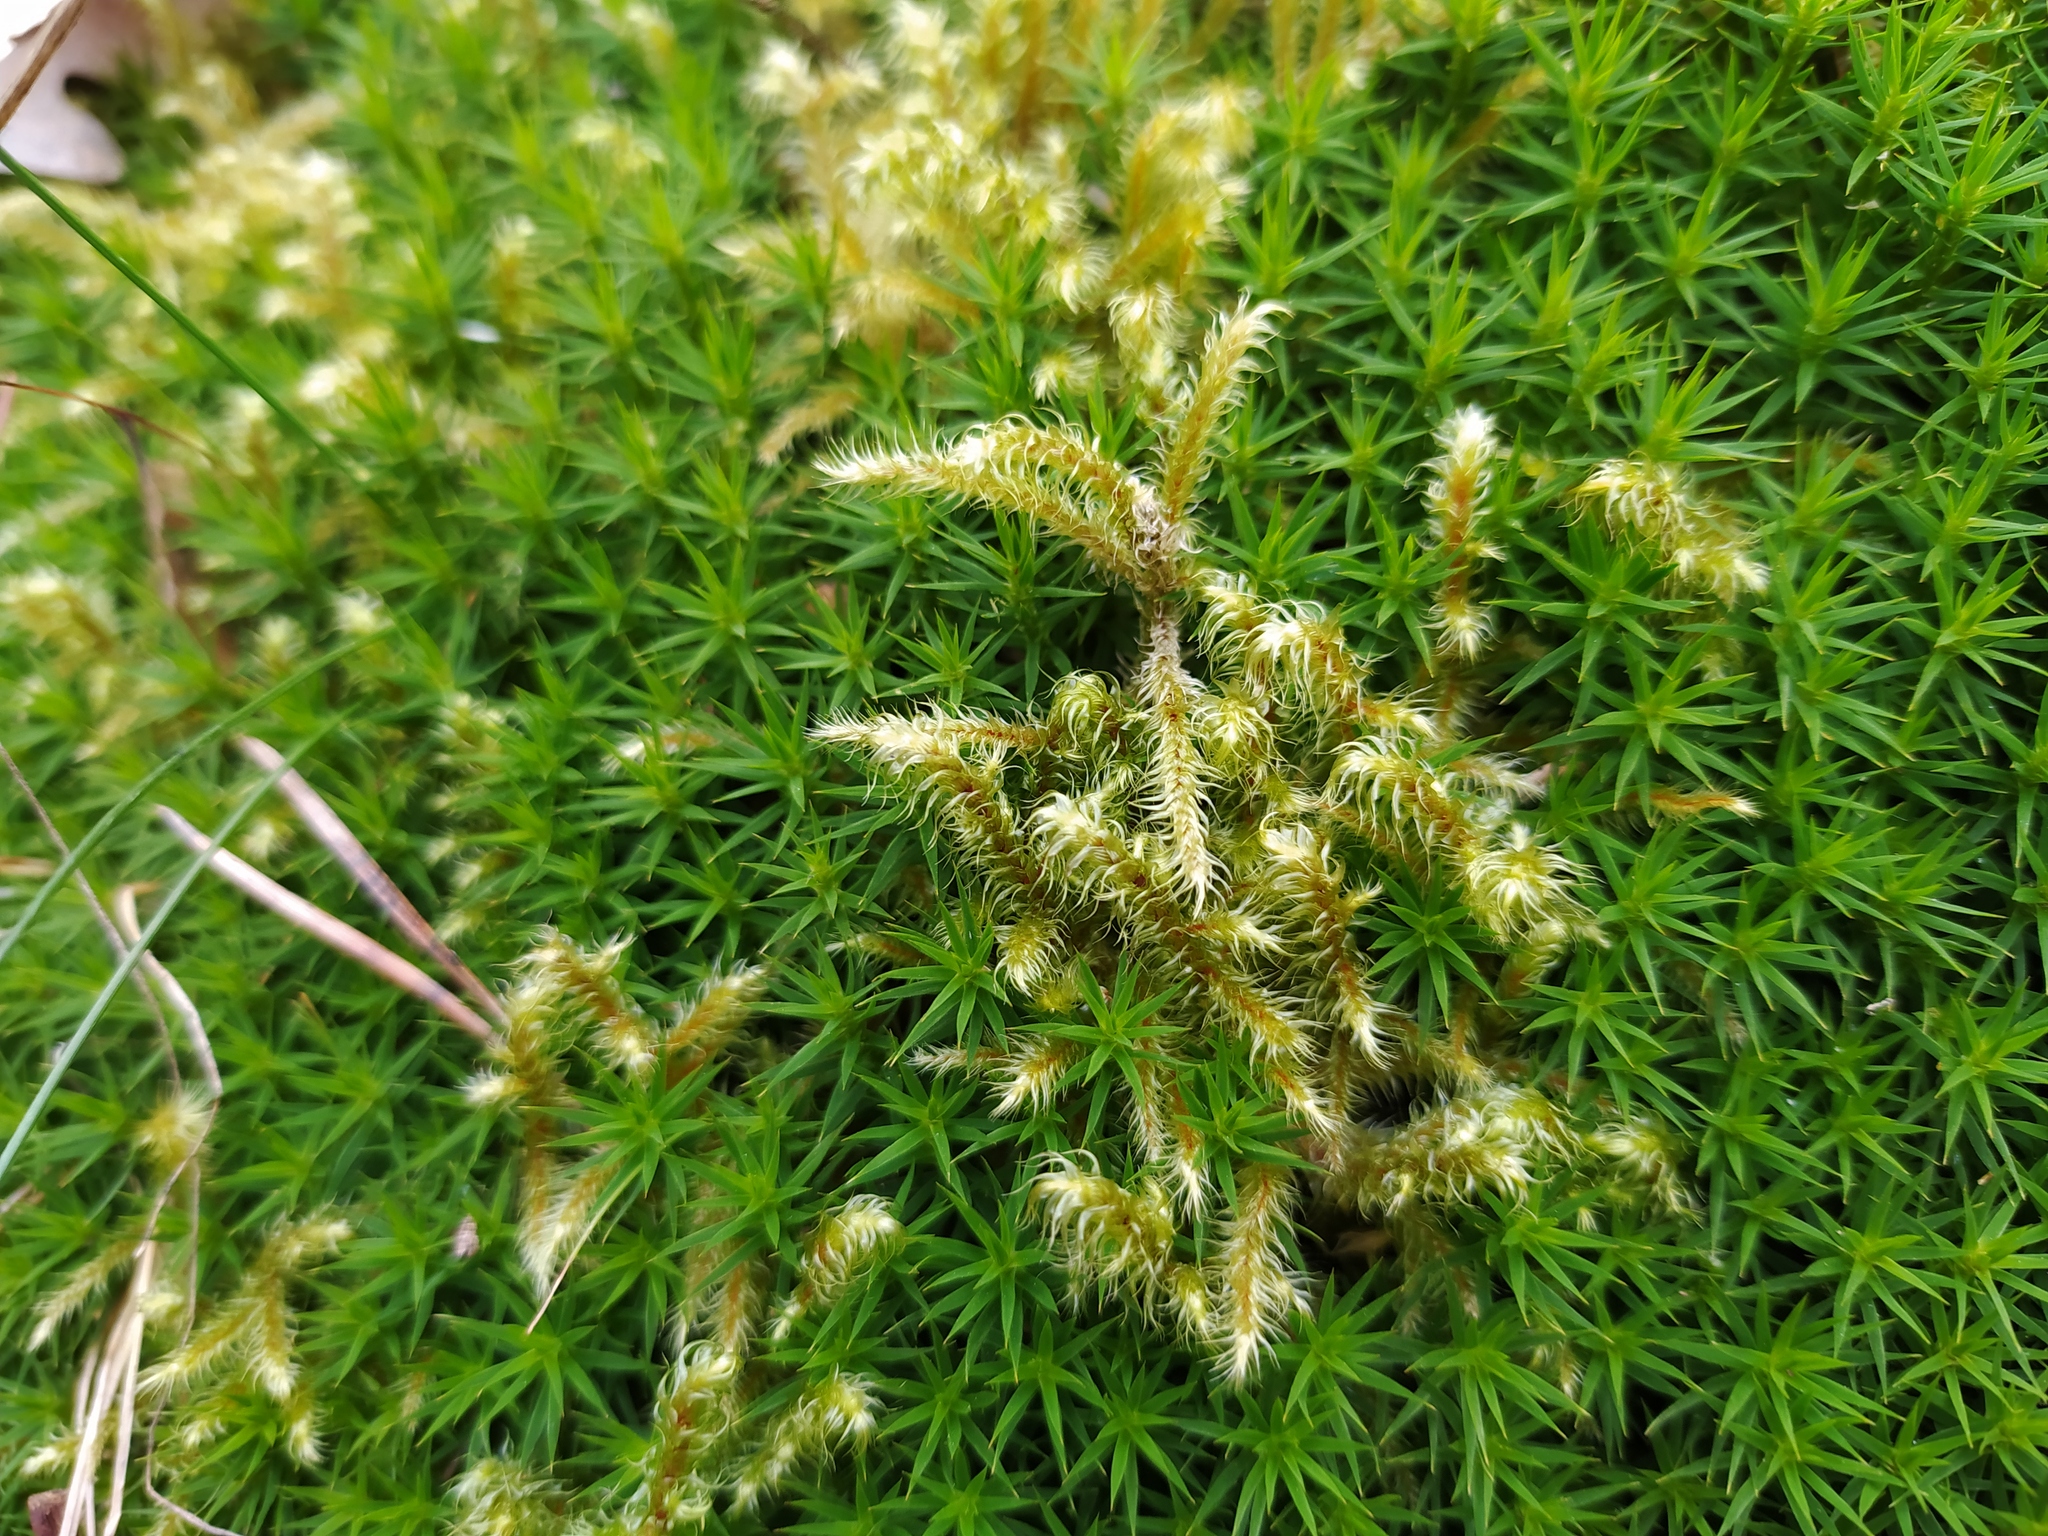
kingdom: Plantae
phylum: Bryophyta
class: Bryopsida
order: Hypnales
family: Hylocomiaceae
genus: Rhytidiadelphus
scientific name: Rhytidiadelphus loreus
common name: Lanky moss
